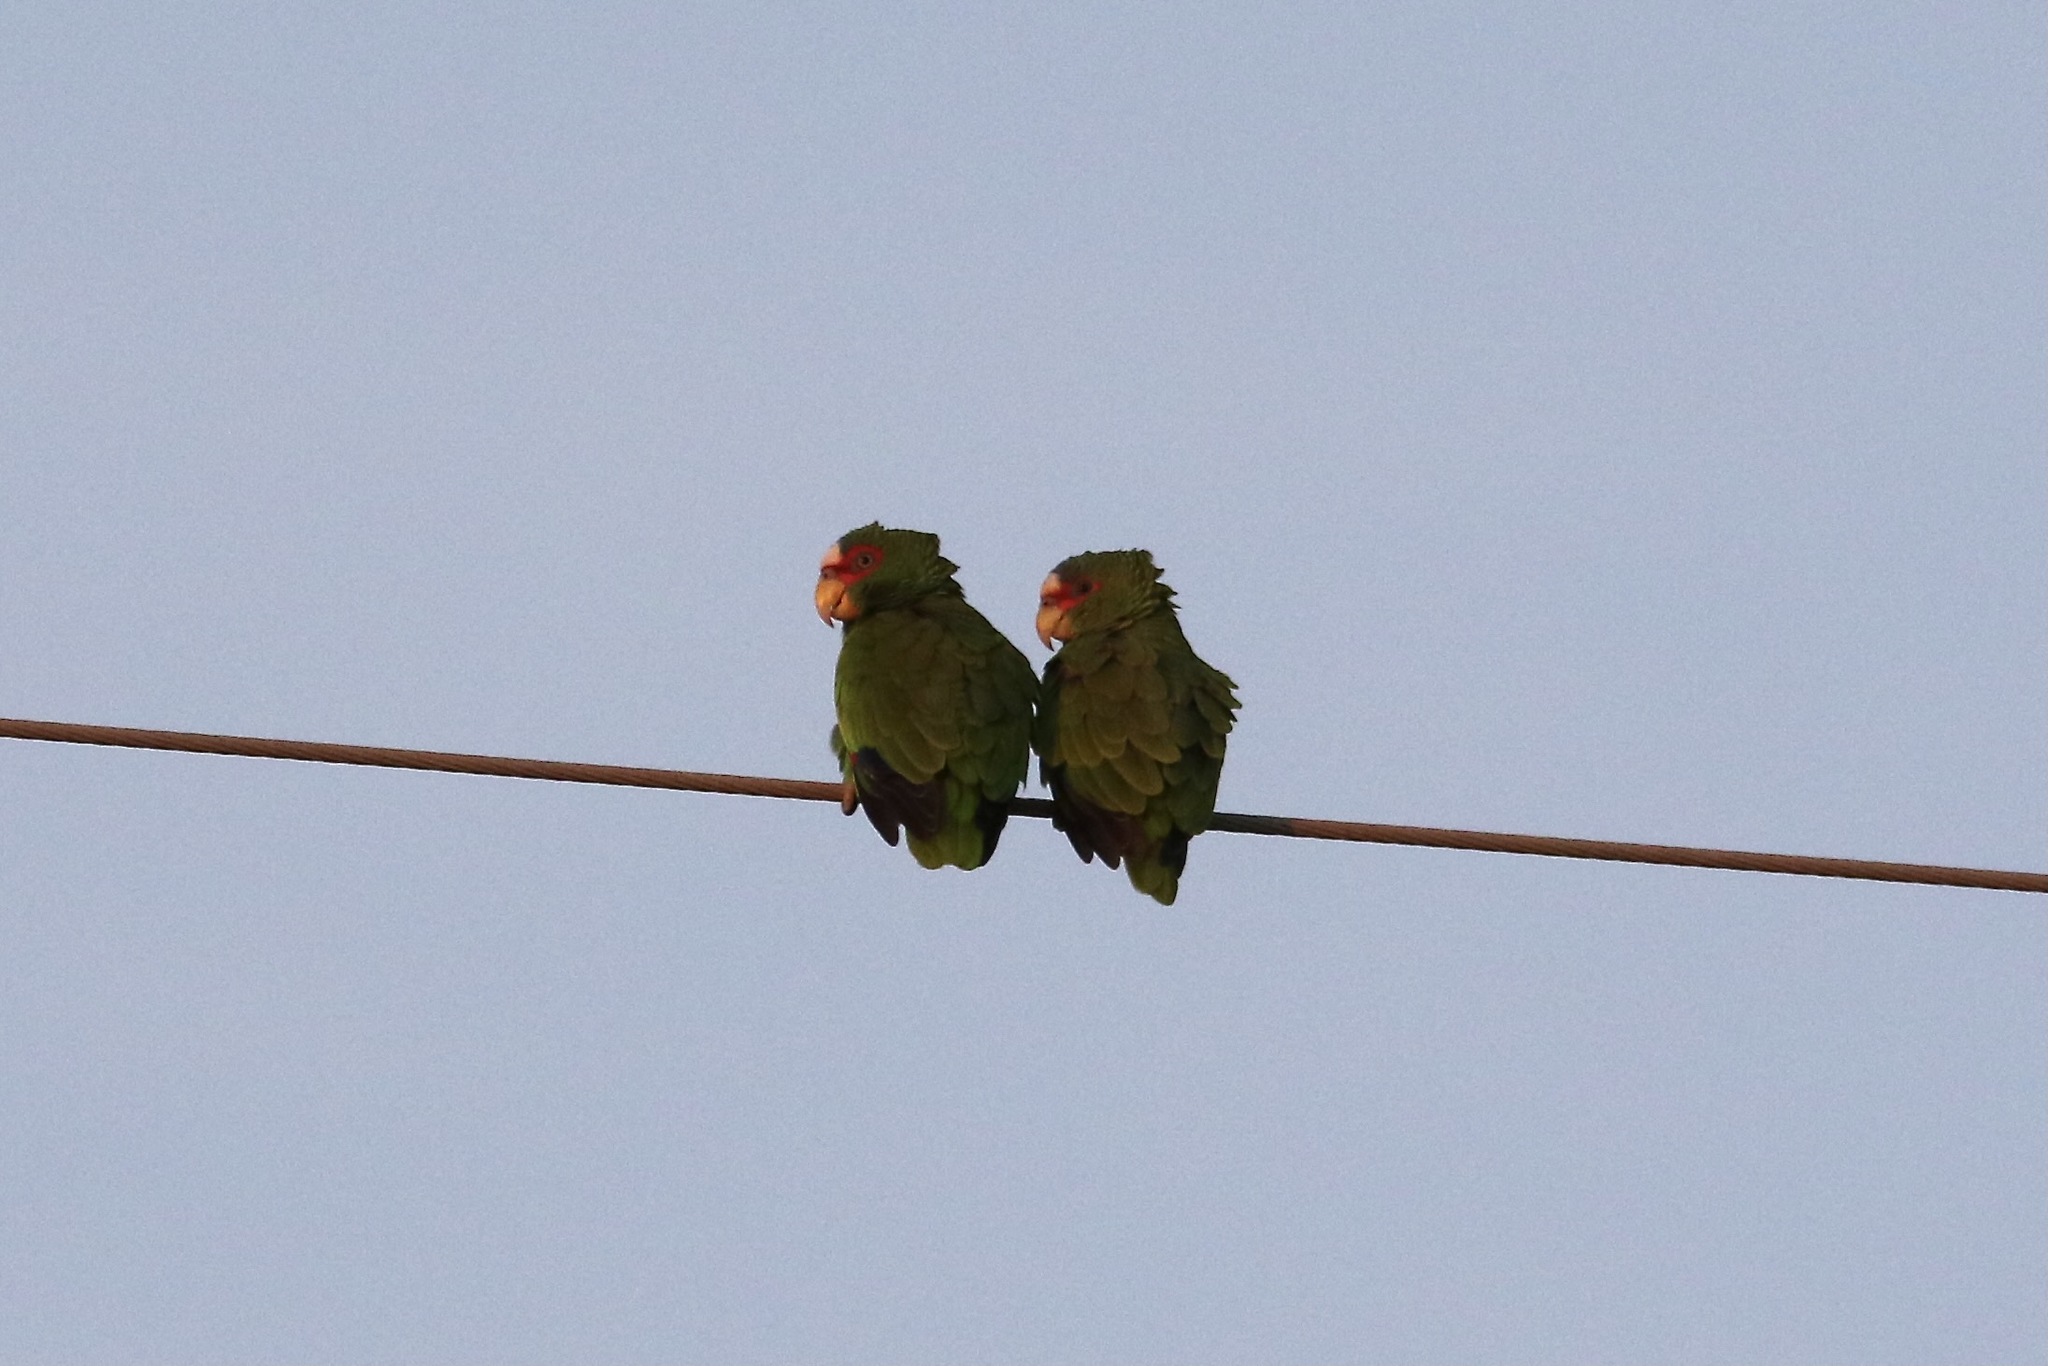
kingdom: Animalia
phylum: Chordata
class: Aves
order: Psittaciformes
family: Psittacidae
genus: Amazona
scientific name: Amazona albifrons
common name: White-fronted amazon
